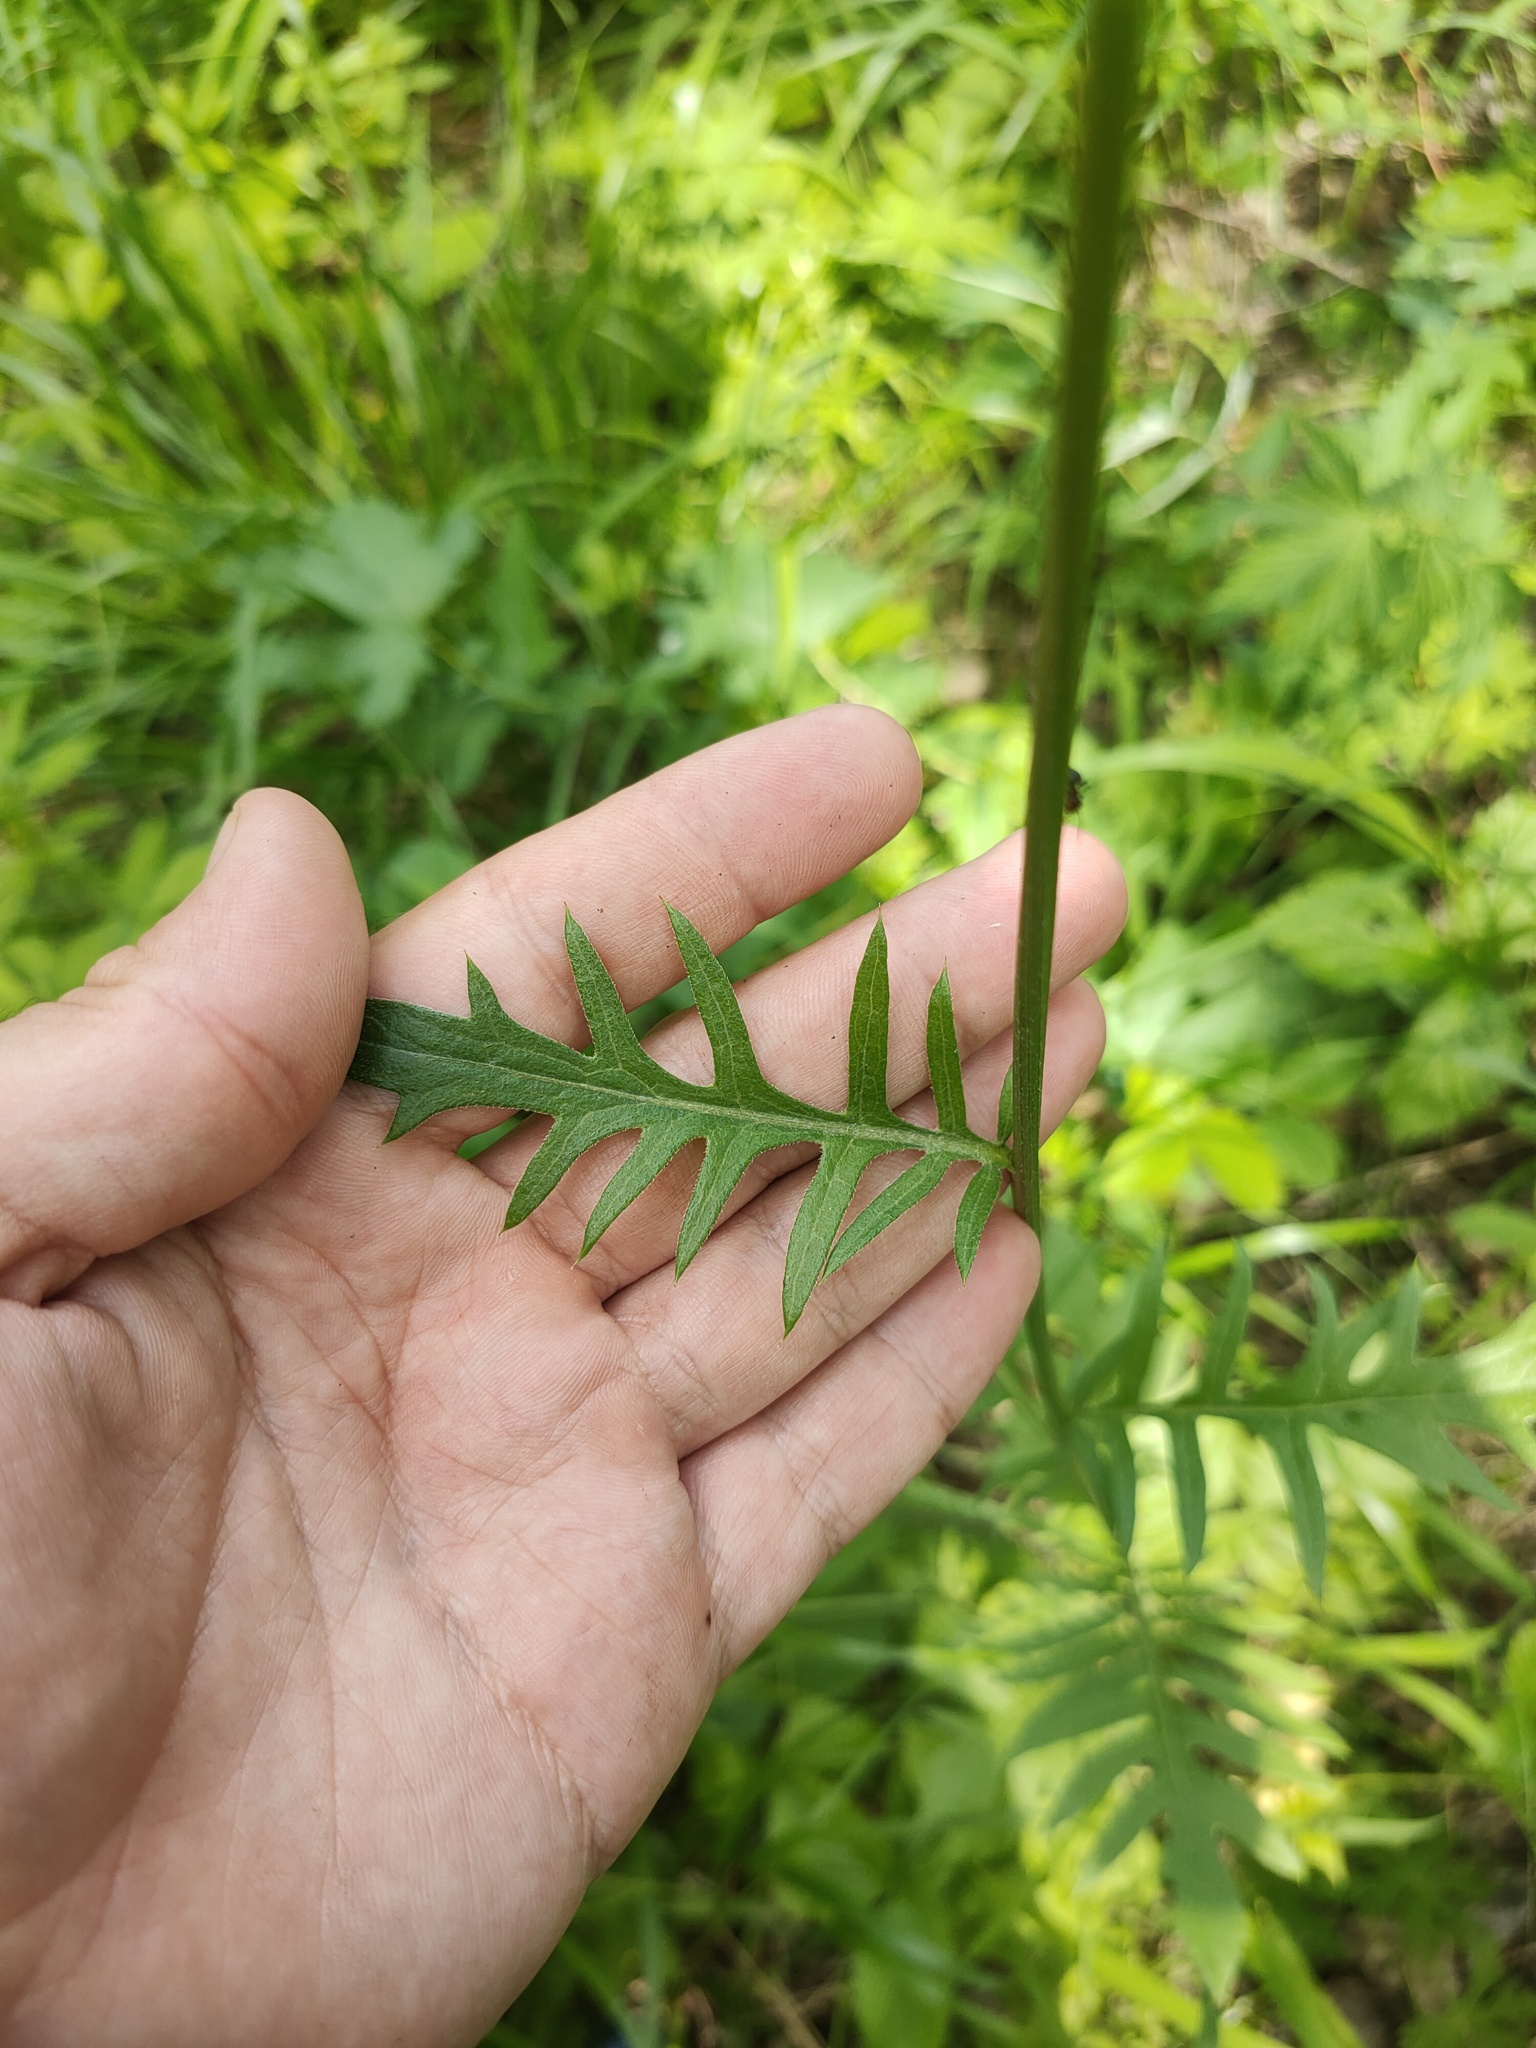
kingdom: Plantae
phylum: Tracheophyta
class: Magnoliopsida
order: Asterales
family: Asteraceae
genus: Cirsium
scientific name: Cirsium heterophyllum
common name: Melancholy thistle
